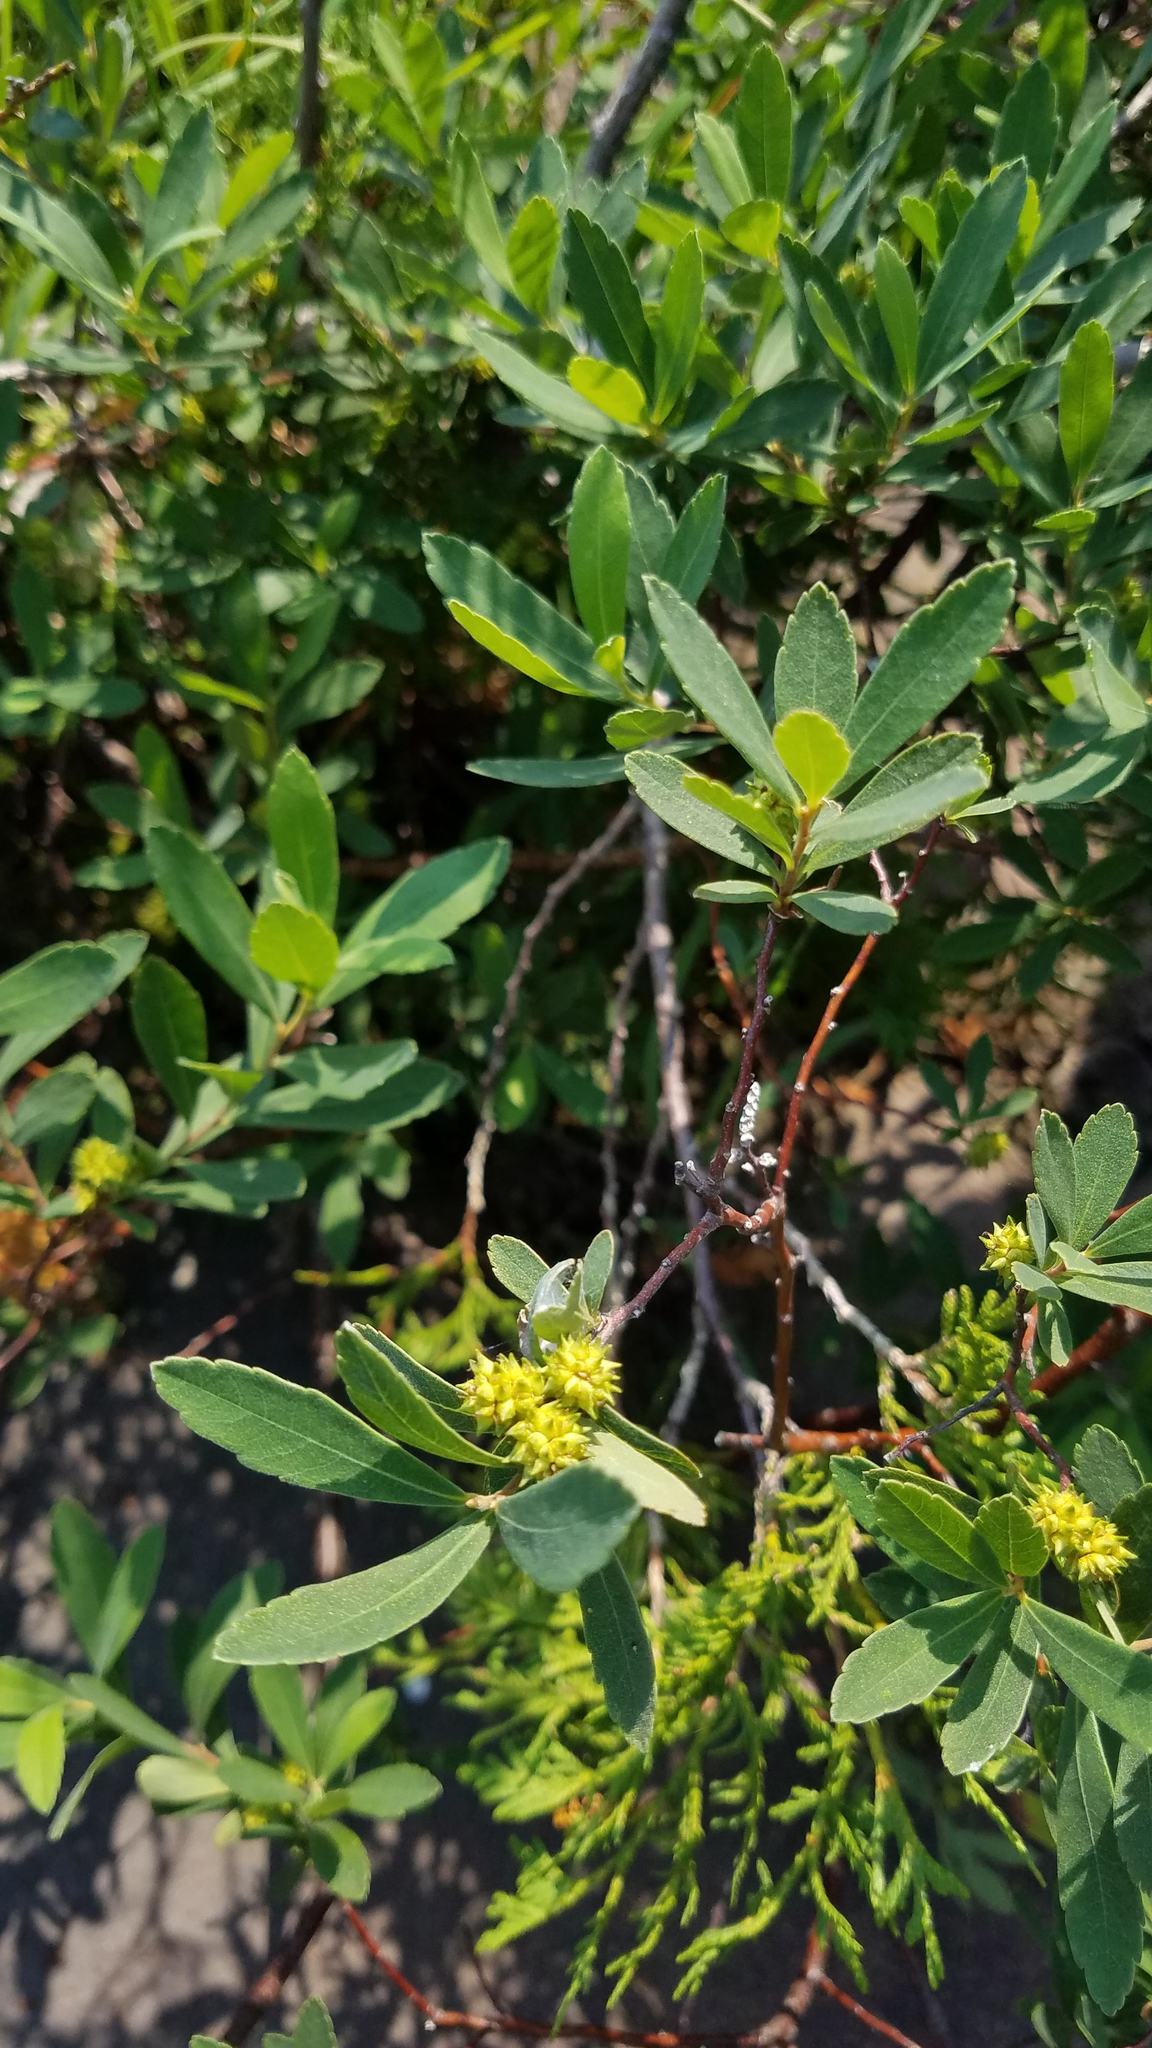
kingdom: Plantae
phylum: Tracheophyta
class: Magnoliopsida
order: Fagales
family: Myricaceae
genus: Myrica
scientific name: Myrica gale
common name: Sweet gale
